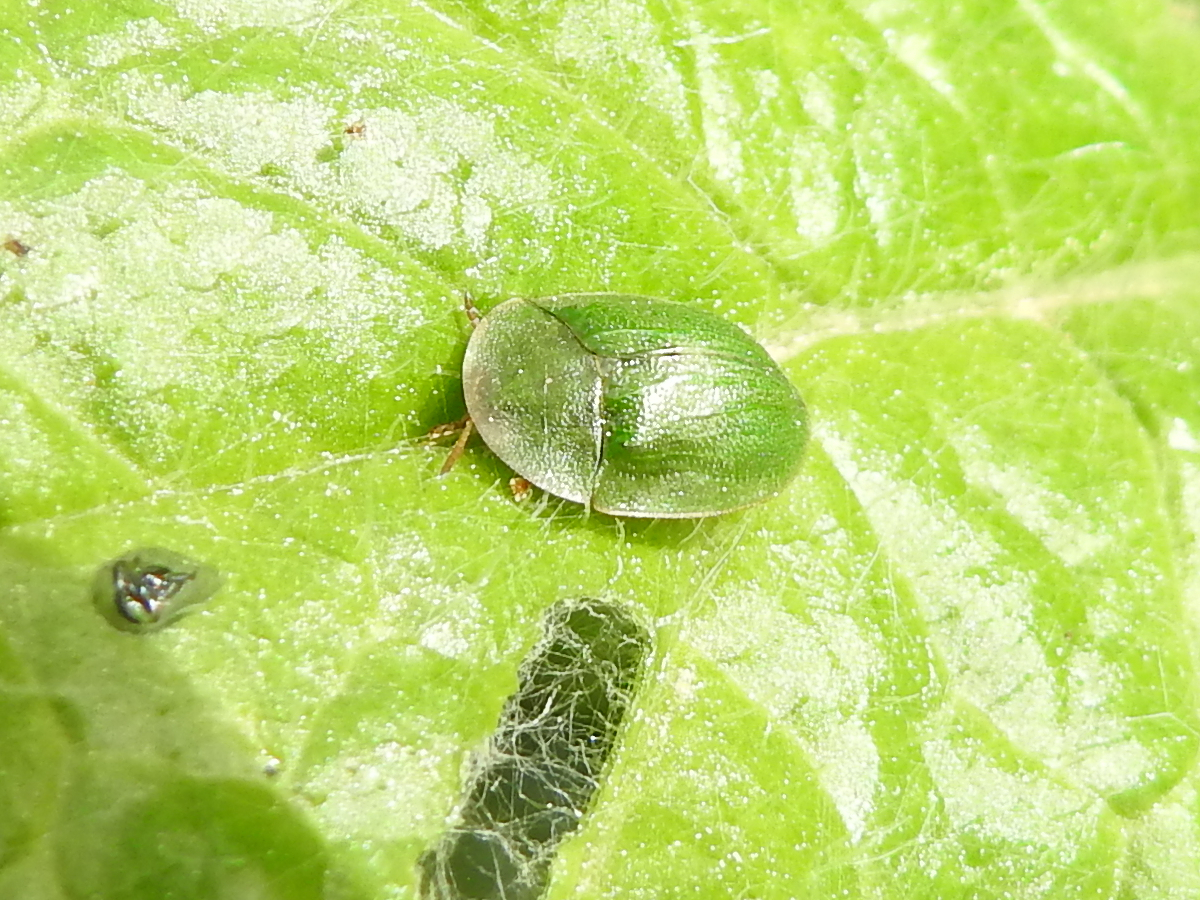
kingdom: Animalia
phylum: Arthropoda
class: Insecta
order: Coleoptera
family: Chrysomelidae
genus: Cassida
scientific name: Cassida rubiginosa
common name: Thistle tortoise beetle
